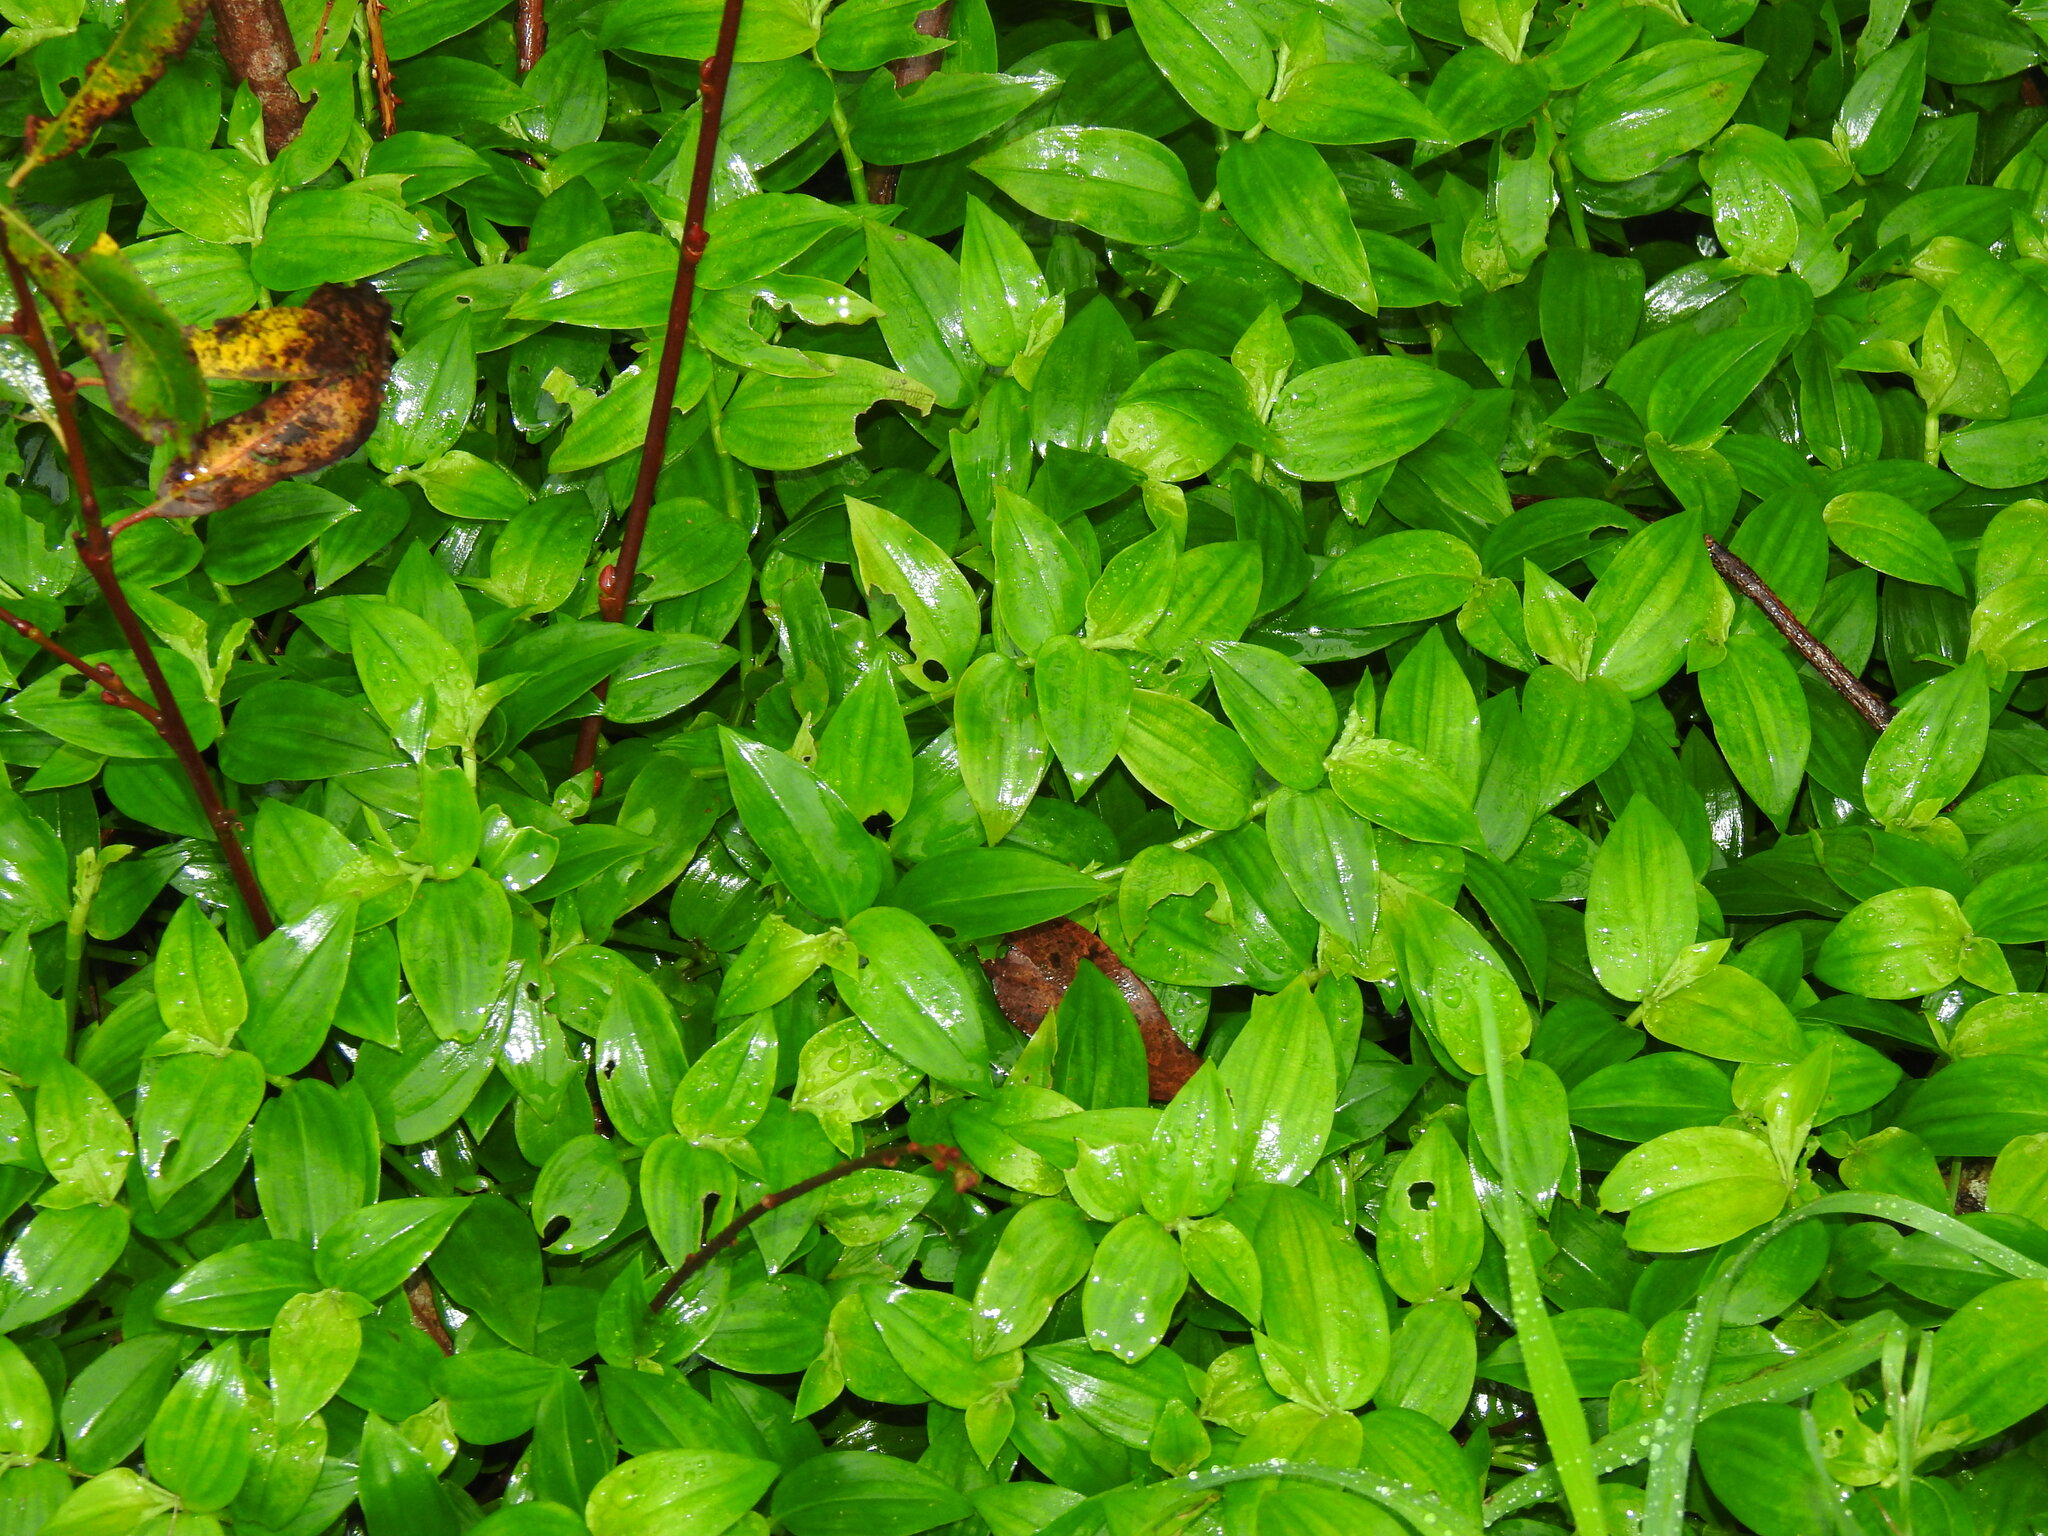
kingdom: Plantae
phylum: Tracheophyta
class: Liliopsida
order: Commelinales
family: Commelinaceae
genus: Tradescantia
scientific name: Tradescantia fluminensis
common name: Wandering-jew
